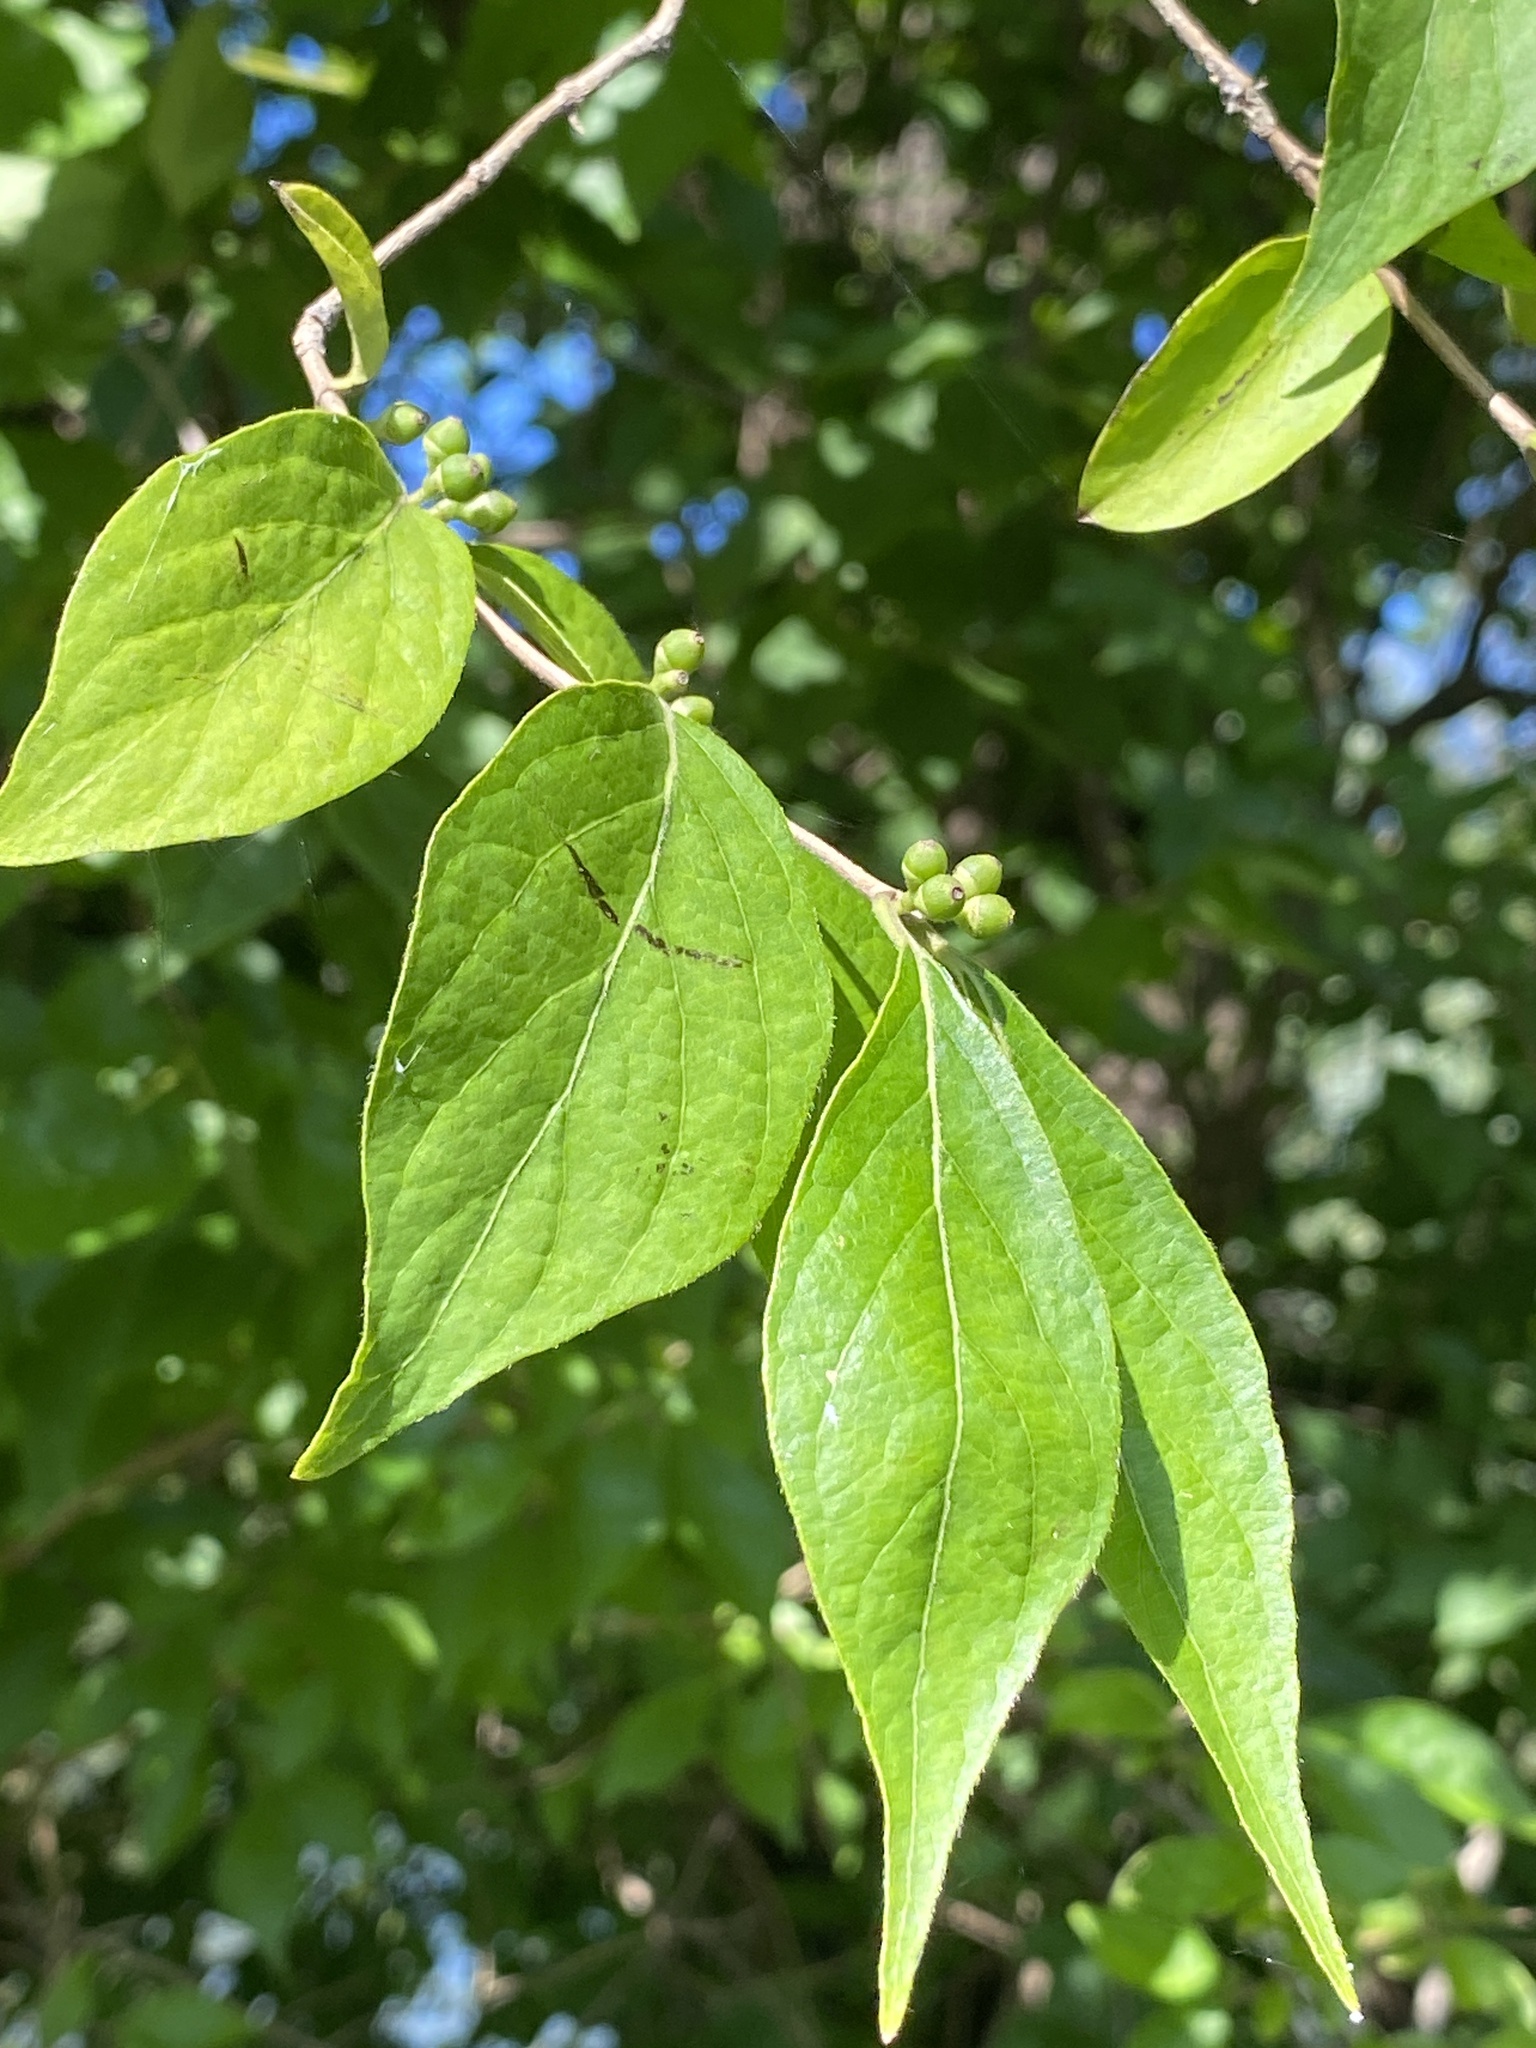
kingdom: Plantae
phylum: Tracheophyta
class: Magnoliopsida
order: Dipsacales
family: Caprifoliaceae
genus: Lonicera
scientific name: Lonicera maackii
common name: Amur honeysuckle
